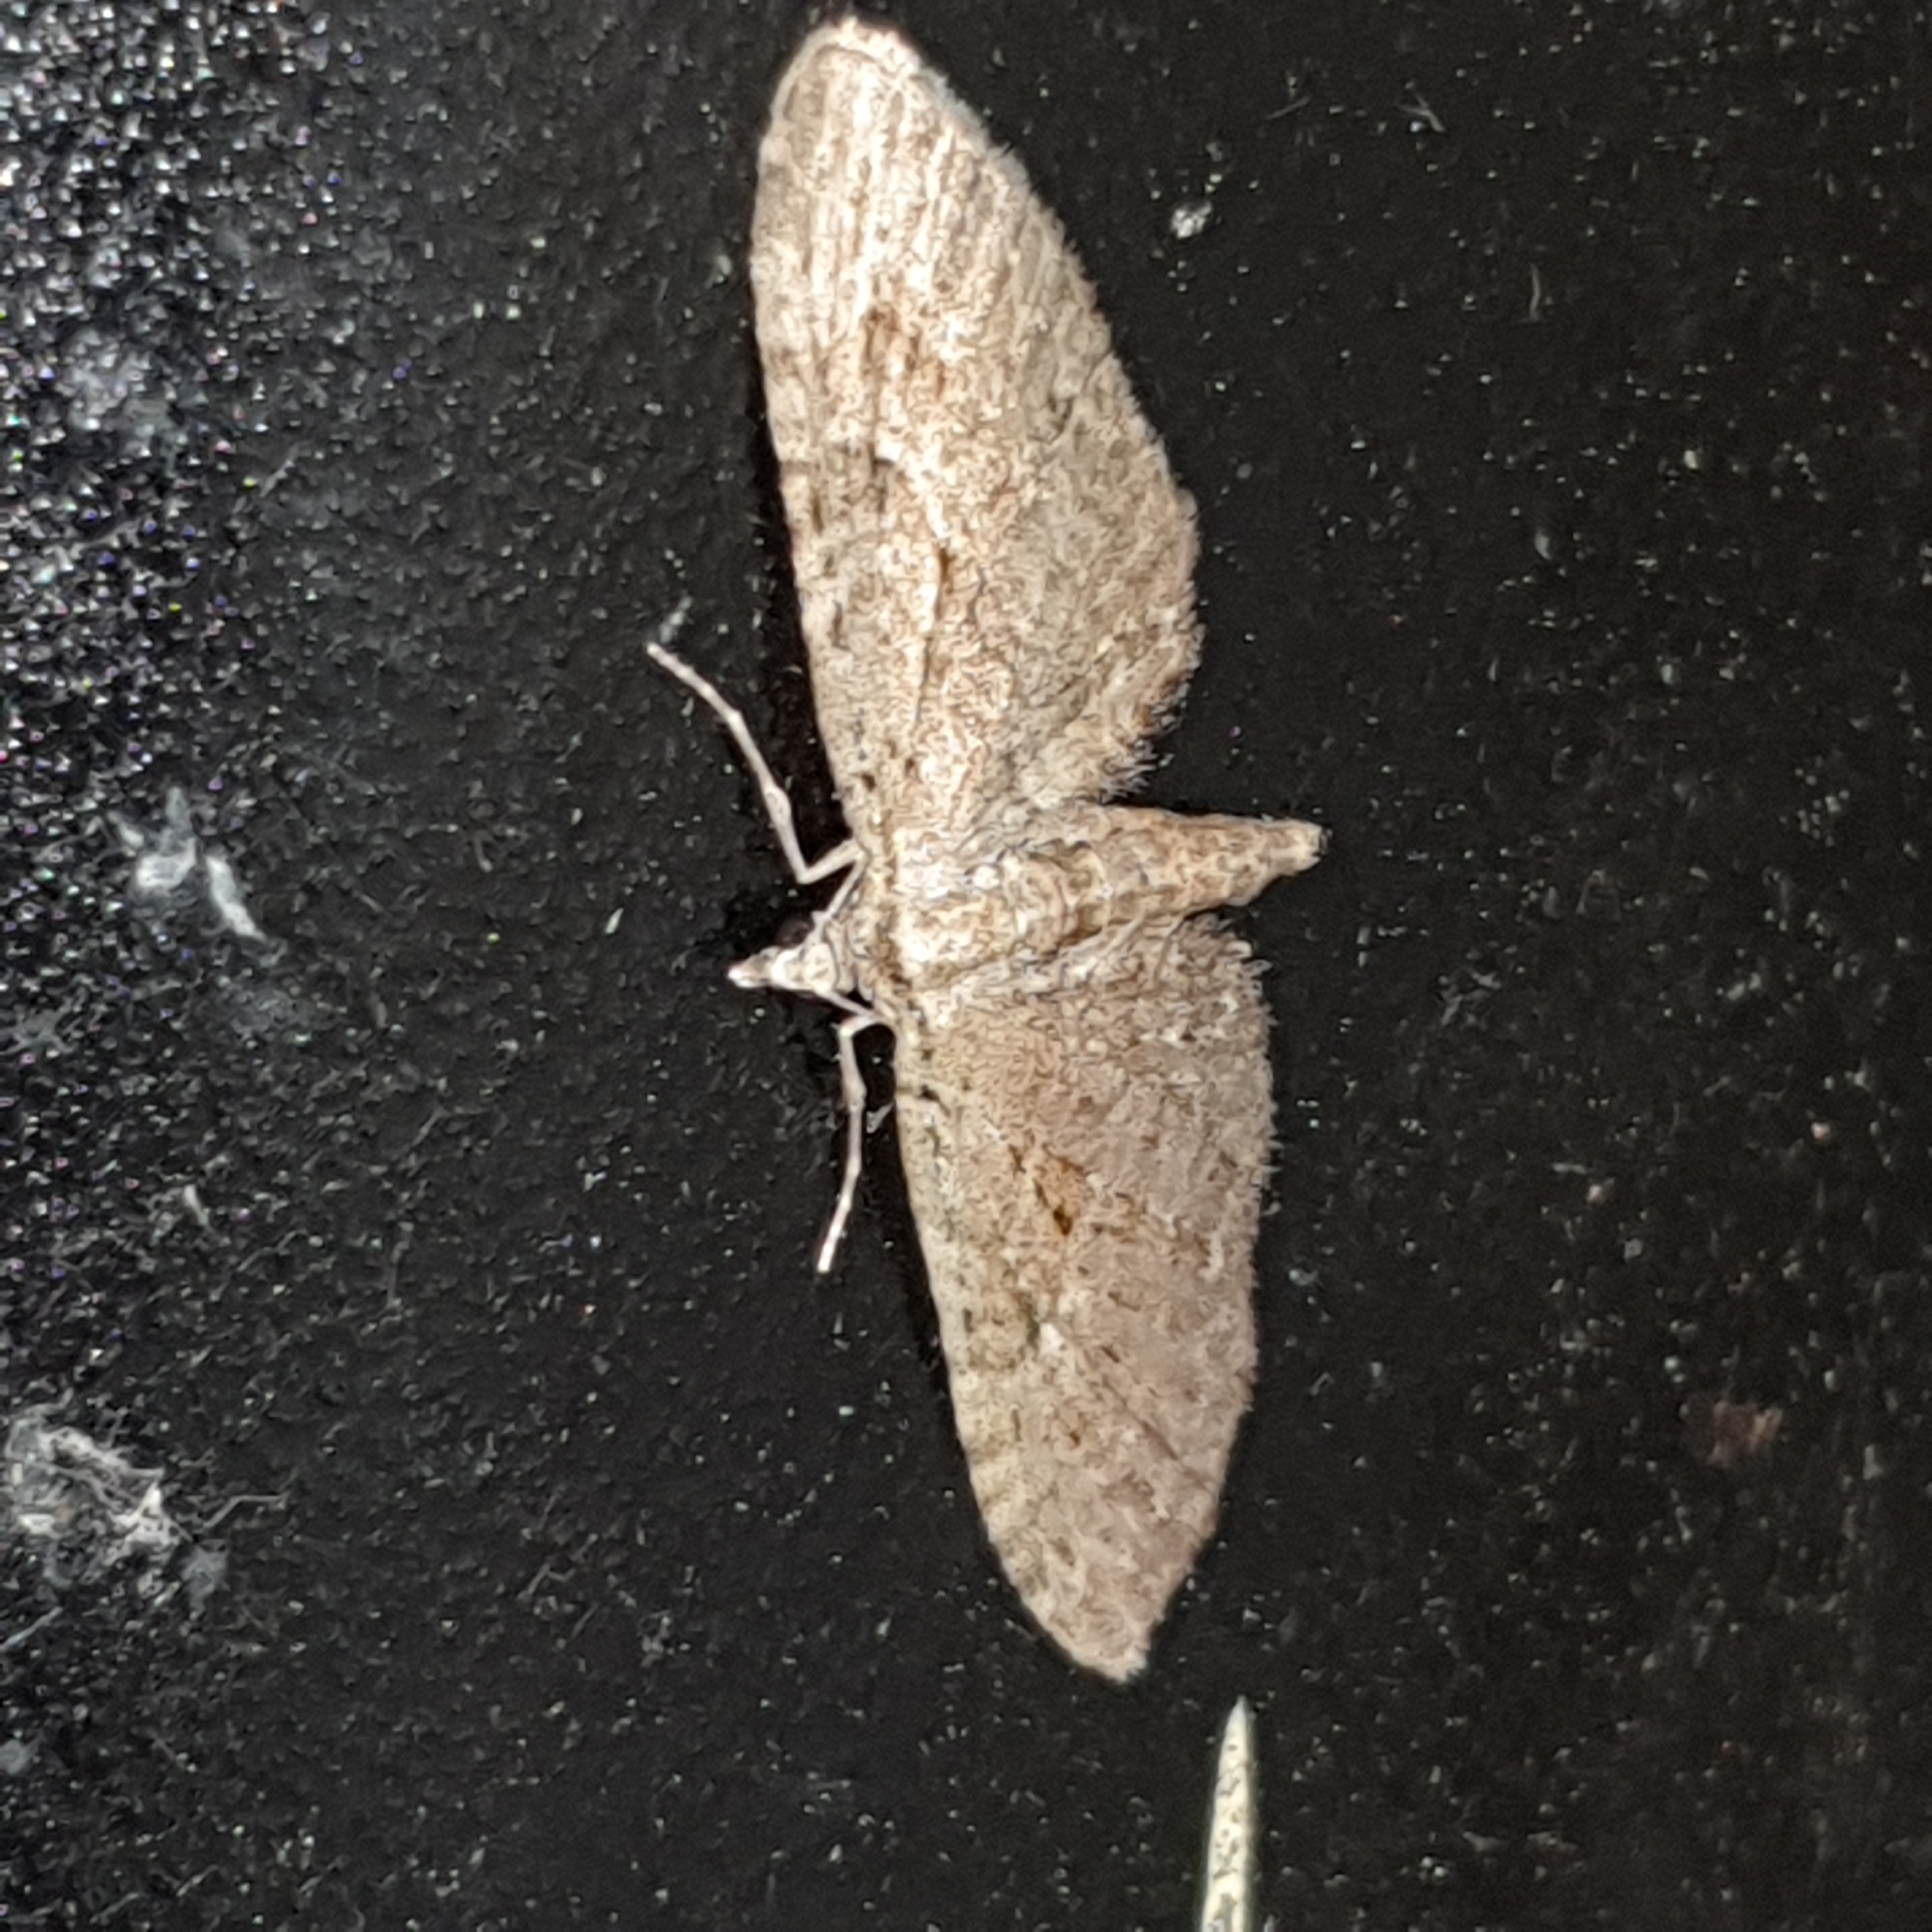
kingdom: Animalia
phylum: Arthropoda
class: Insecta
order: Lepidoptera
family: Geometridae
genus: Eupithecia
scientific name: Eupithecia pusillata
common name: Juniper pug
